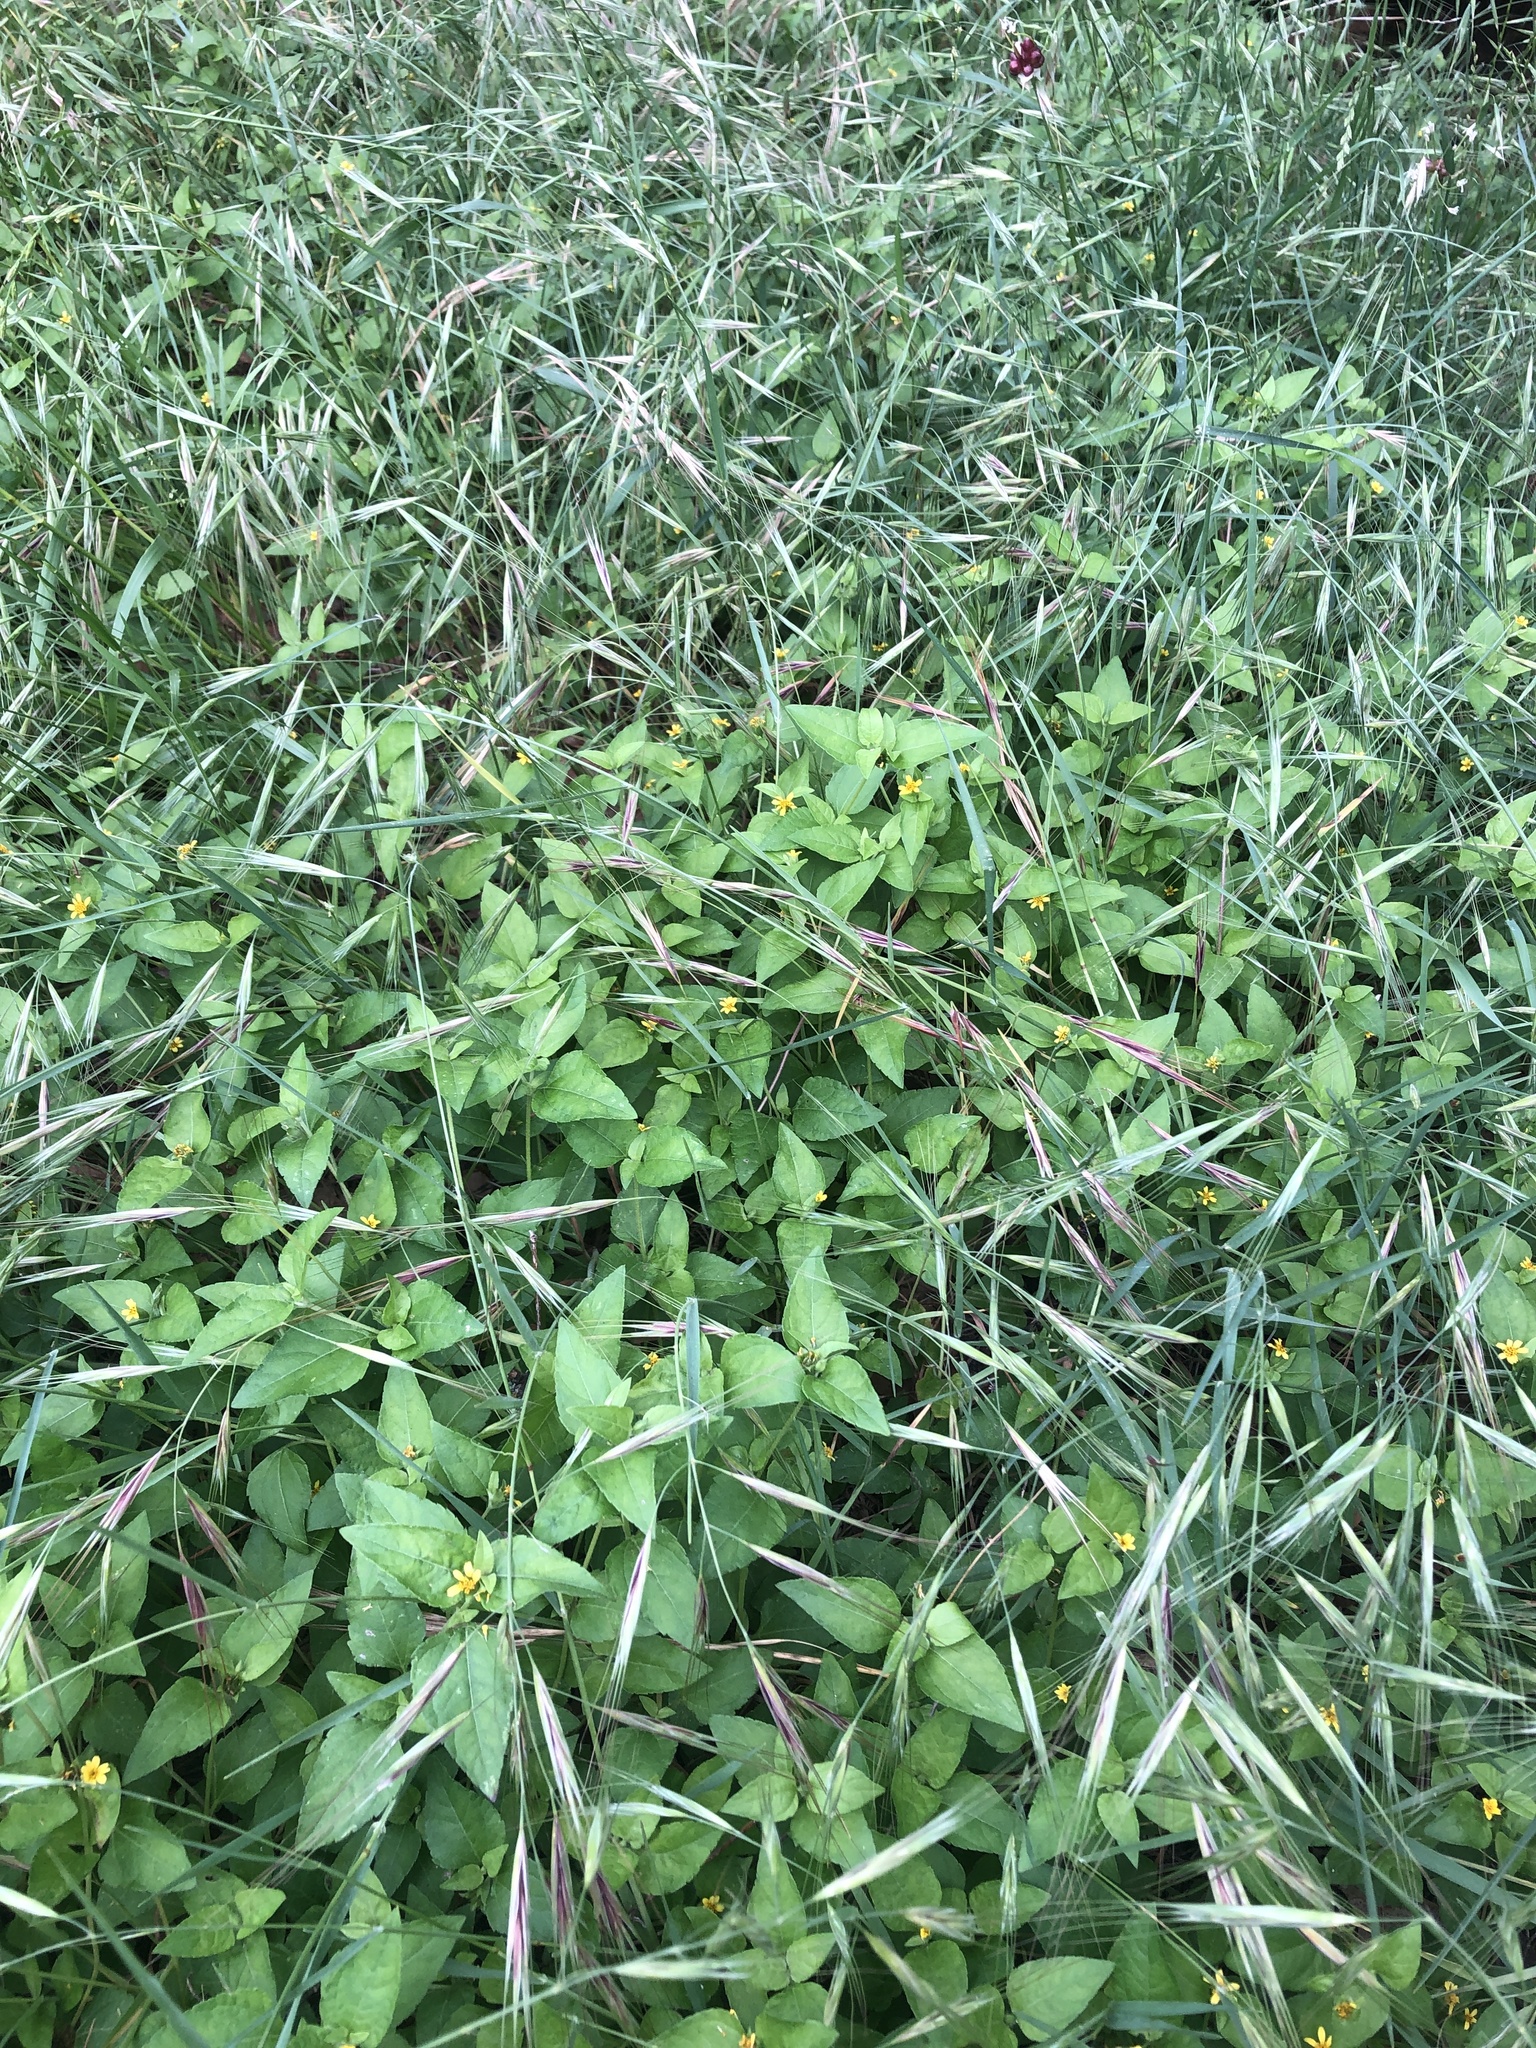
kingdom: Plantae
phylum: Tracheophyta
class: Liliopsida
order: Poales
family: Poaceae
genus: Bromus
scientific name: Bromus diandrus
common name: Ripgut brome
